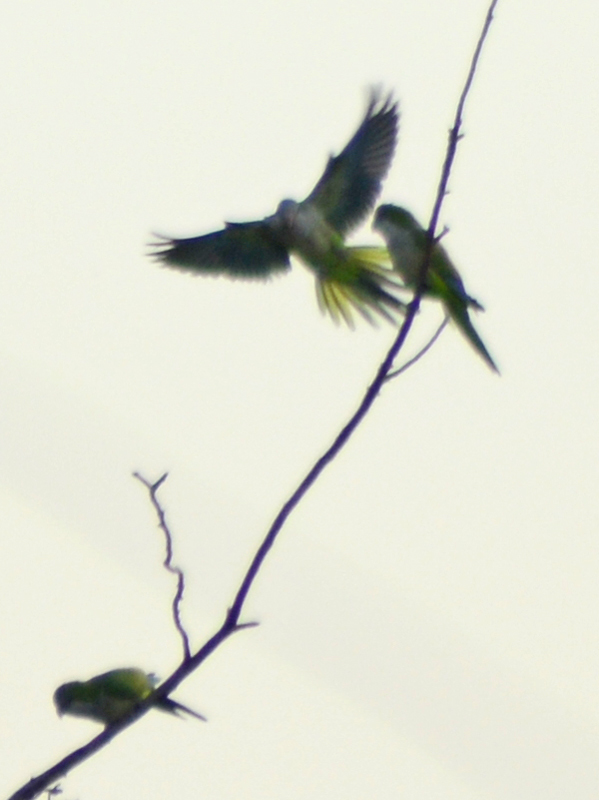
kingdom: Animalia
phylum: Chordata
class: Aves
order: Psittaciformes
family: Psittacidae
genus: Myiopsitta
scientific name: Myiopsitta monachus
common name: Monk parakeet
